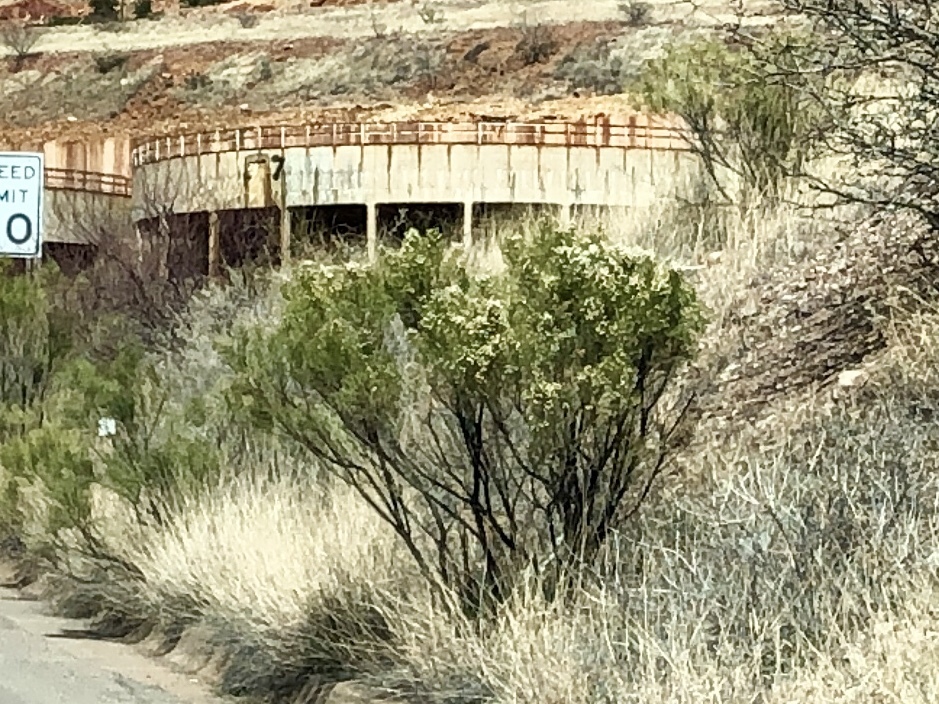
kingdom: Plantae
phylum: Tracheophyta
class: Magnoliopsida
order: Asterales
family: Asteraceae
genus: Baccharis
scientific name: Baccharis sarothroides
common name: Desert-broom
